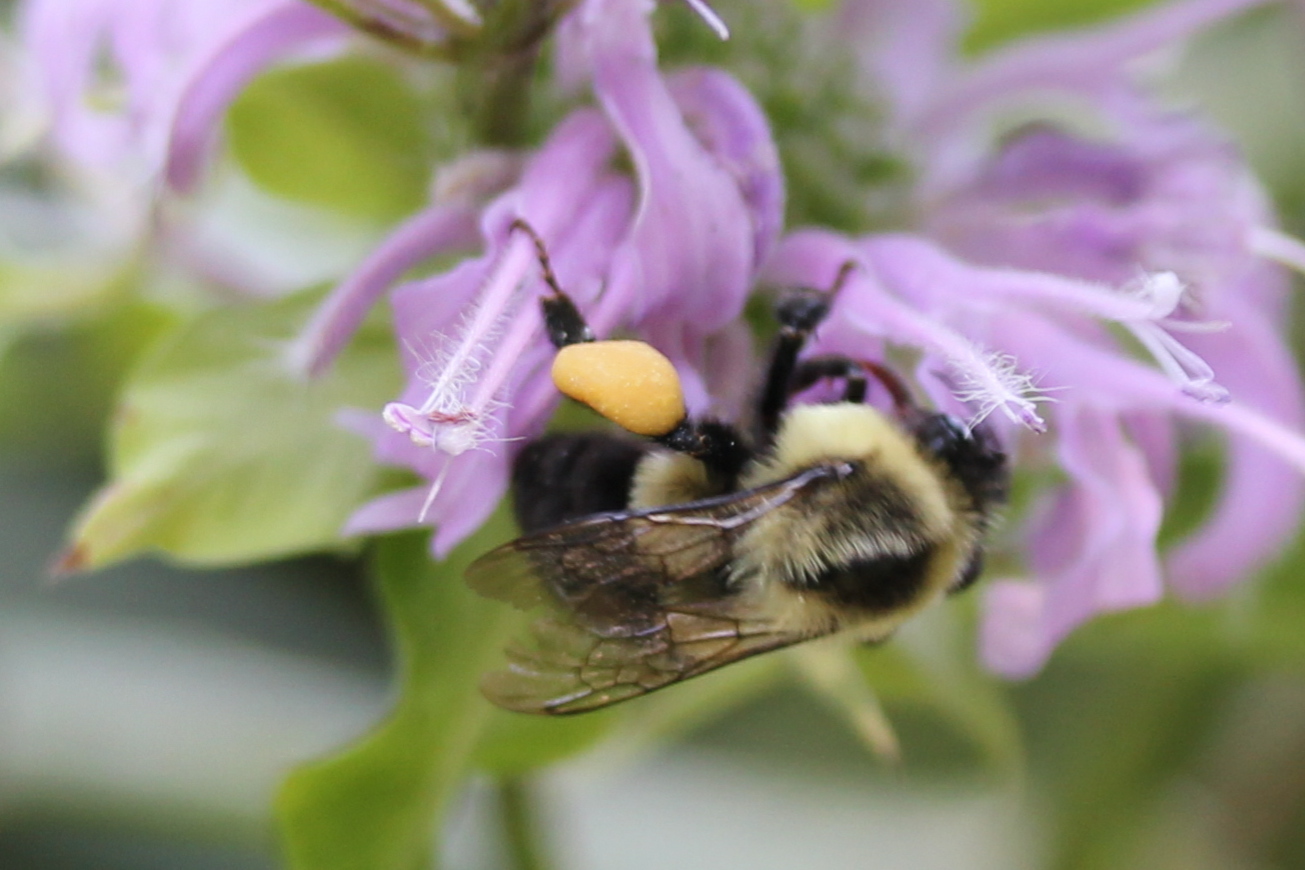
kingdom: Animalia
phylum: Arthropoda
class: Insecta
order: Hymenoptera
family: Apidae
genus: Bombus
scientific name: Bombus impatiens
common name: Common eastern bumble bee
